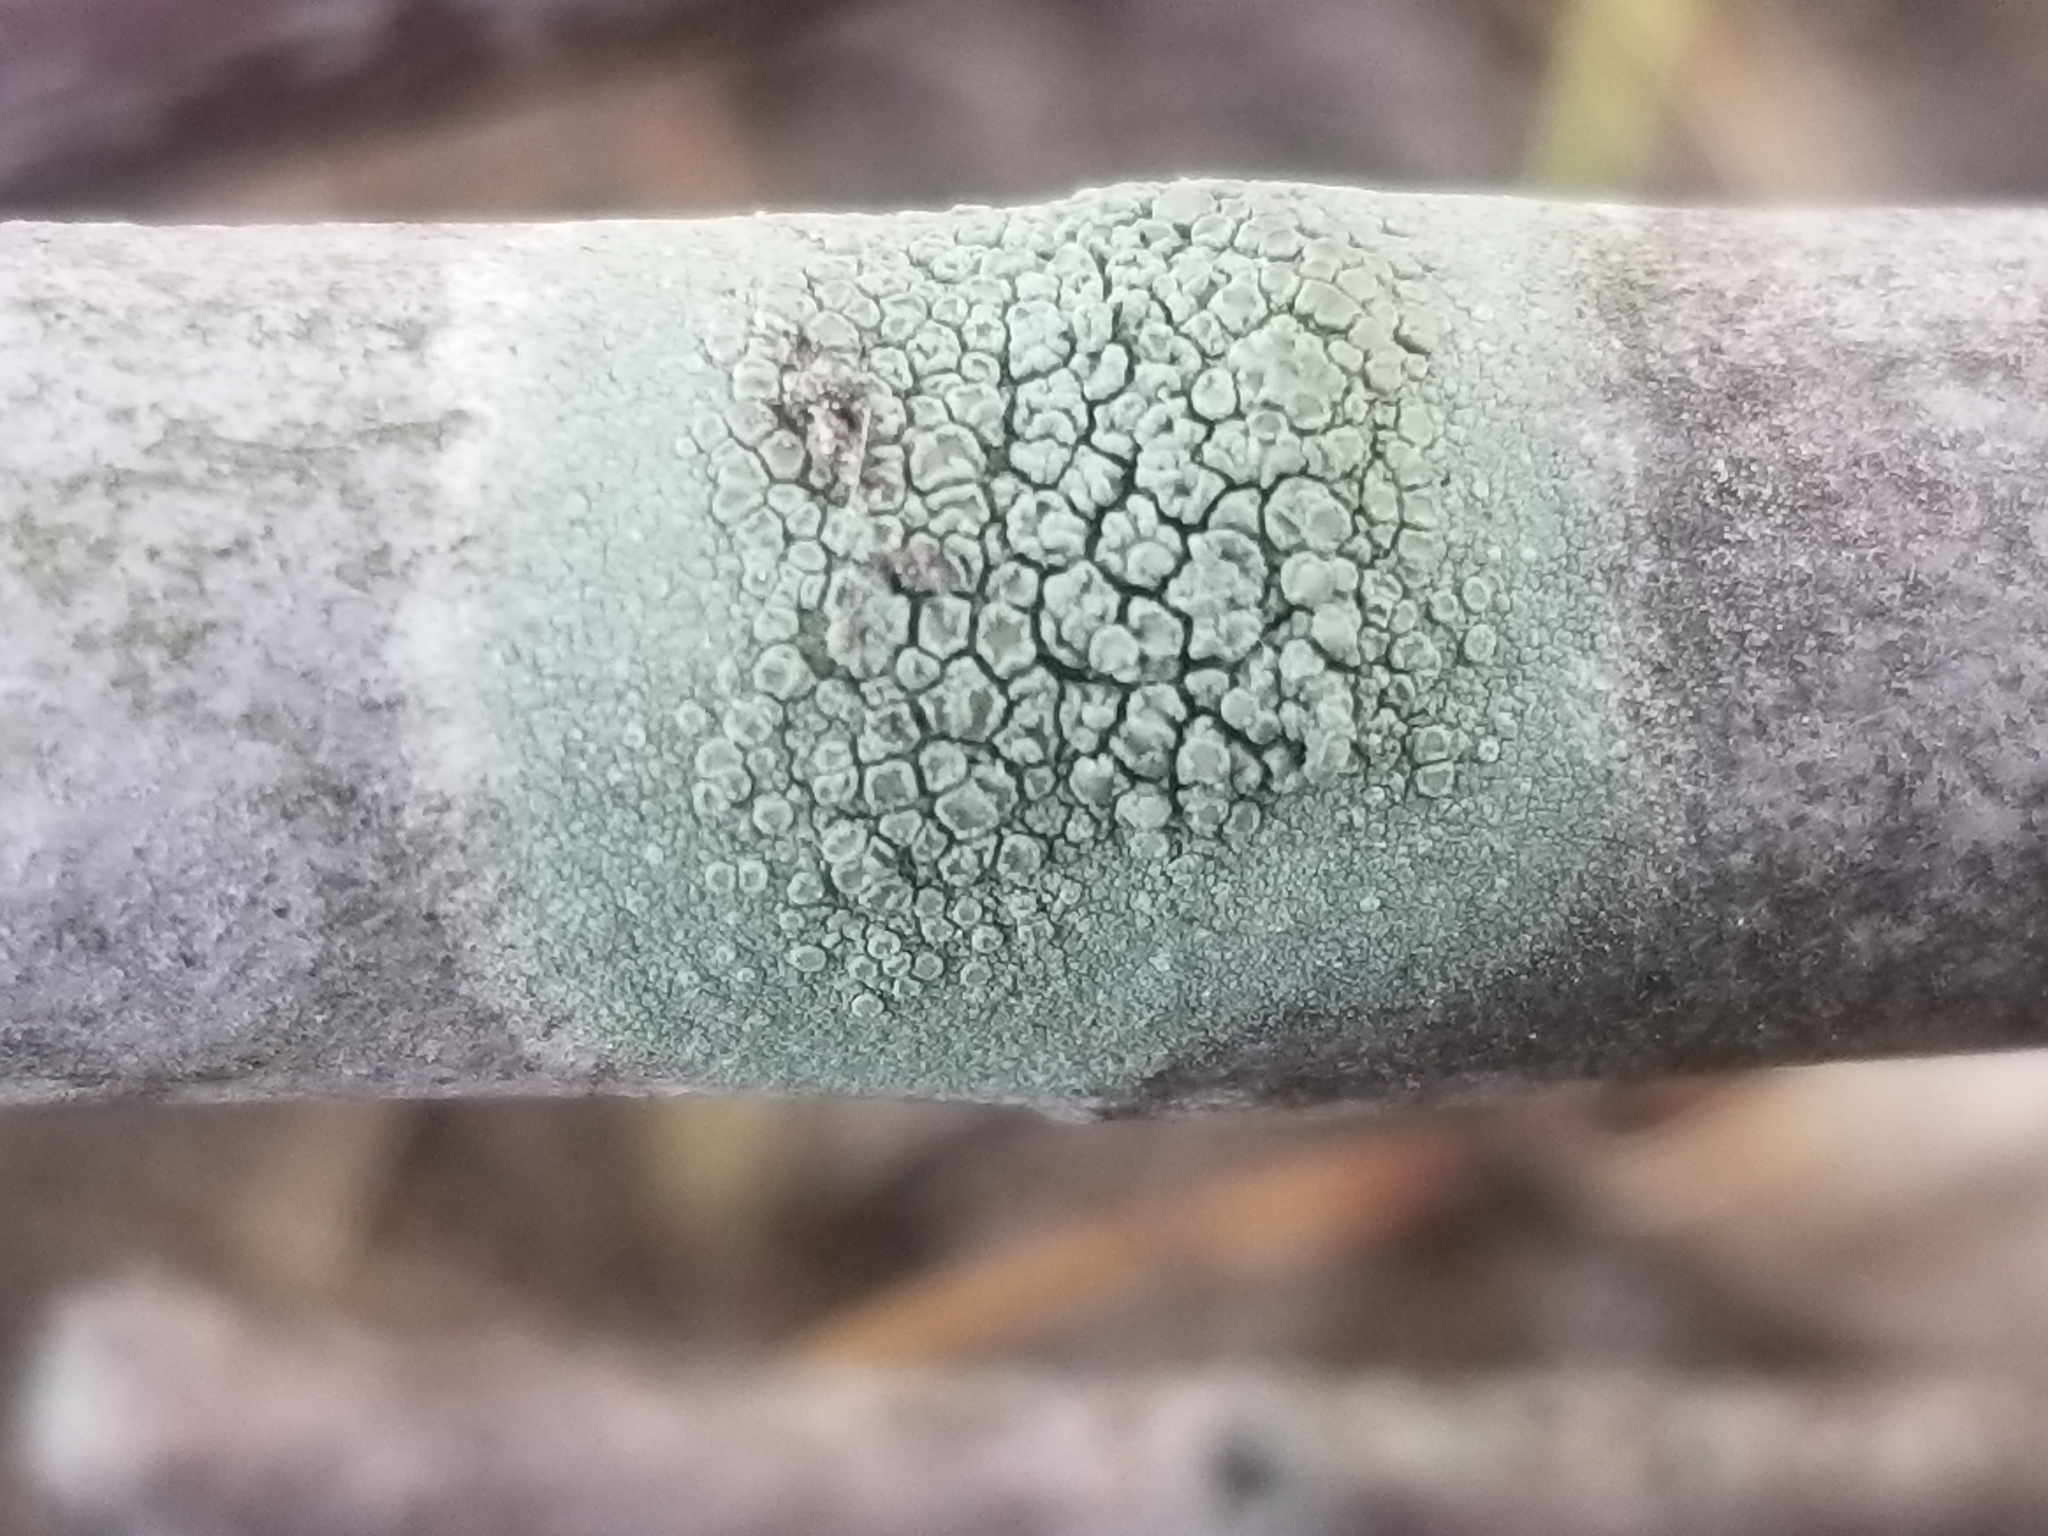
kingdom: Fungi
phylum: Ascomycota
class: Lecanoromycetes
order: Lecanorales
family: Lecanoraceae
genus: Lecanora
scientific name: Lecanora strobilina
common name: Mealy rim-lichen
